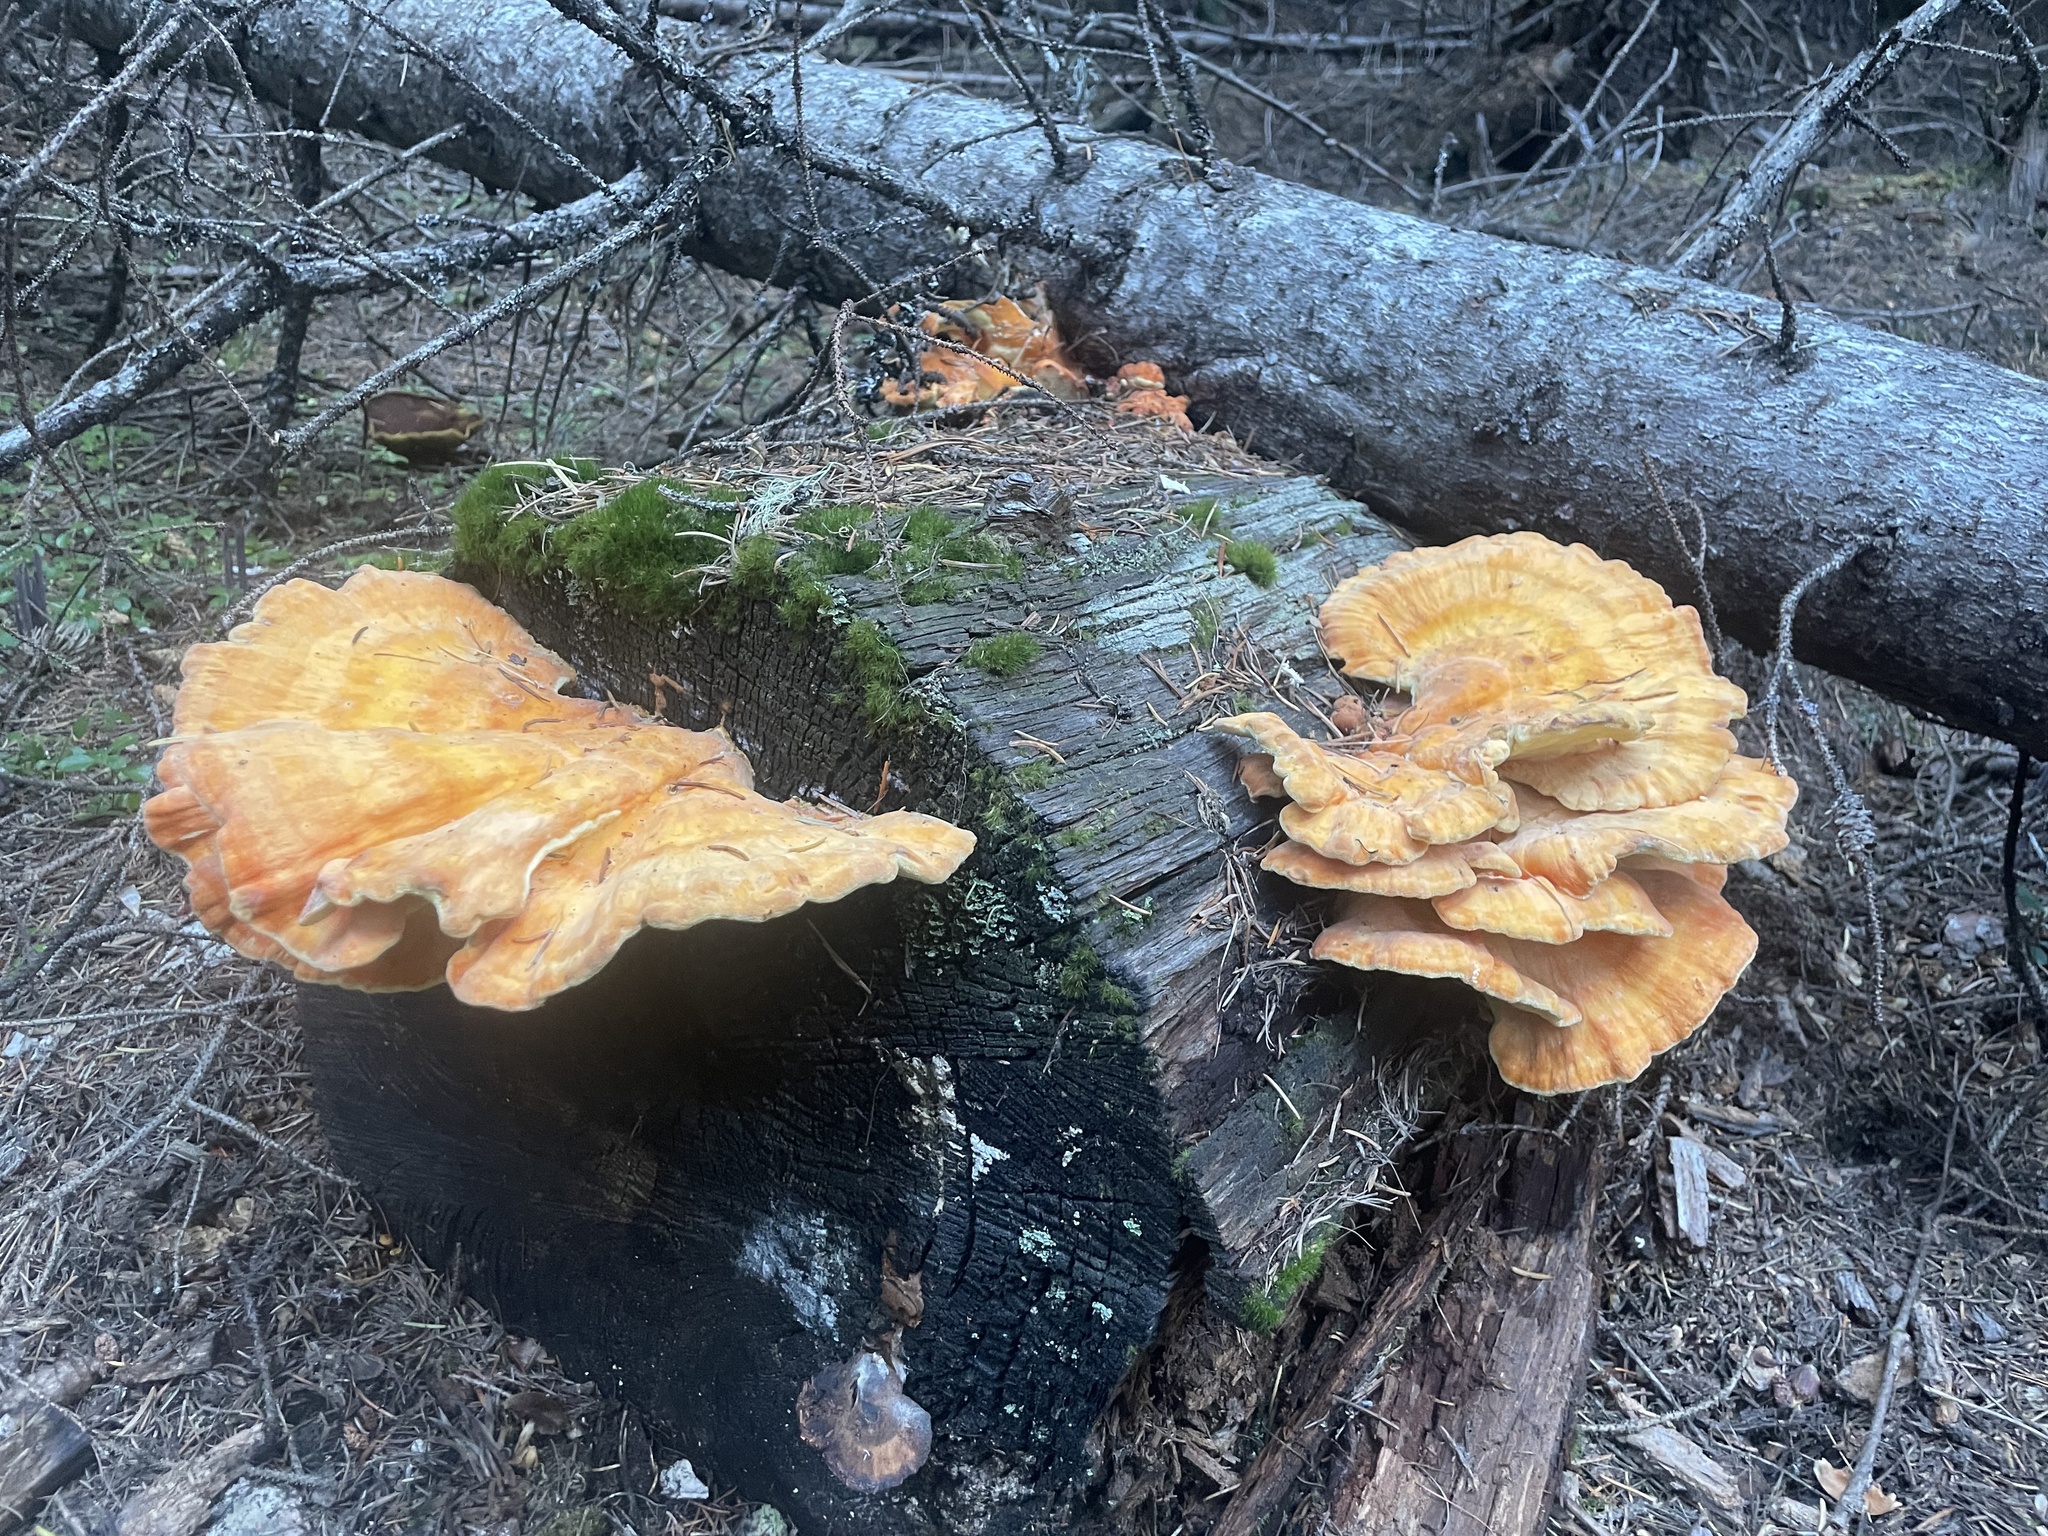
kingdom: Fungi
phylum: Basidiomycota
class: Agaricomycetes
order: Polyporales
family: Laetiporaceae
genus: Laetiporus
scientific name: Laetiporus conifericola
